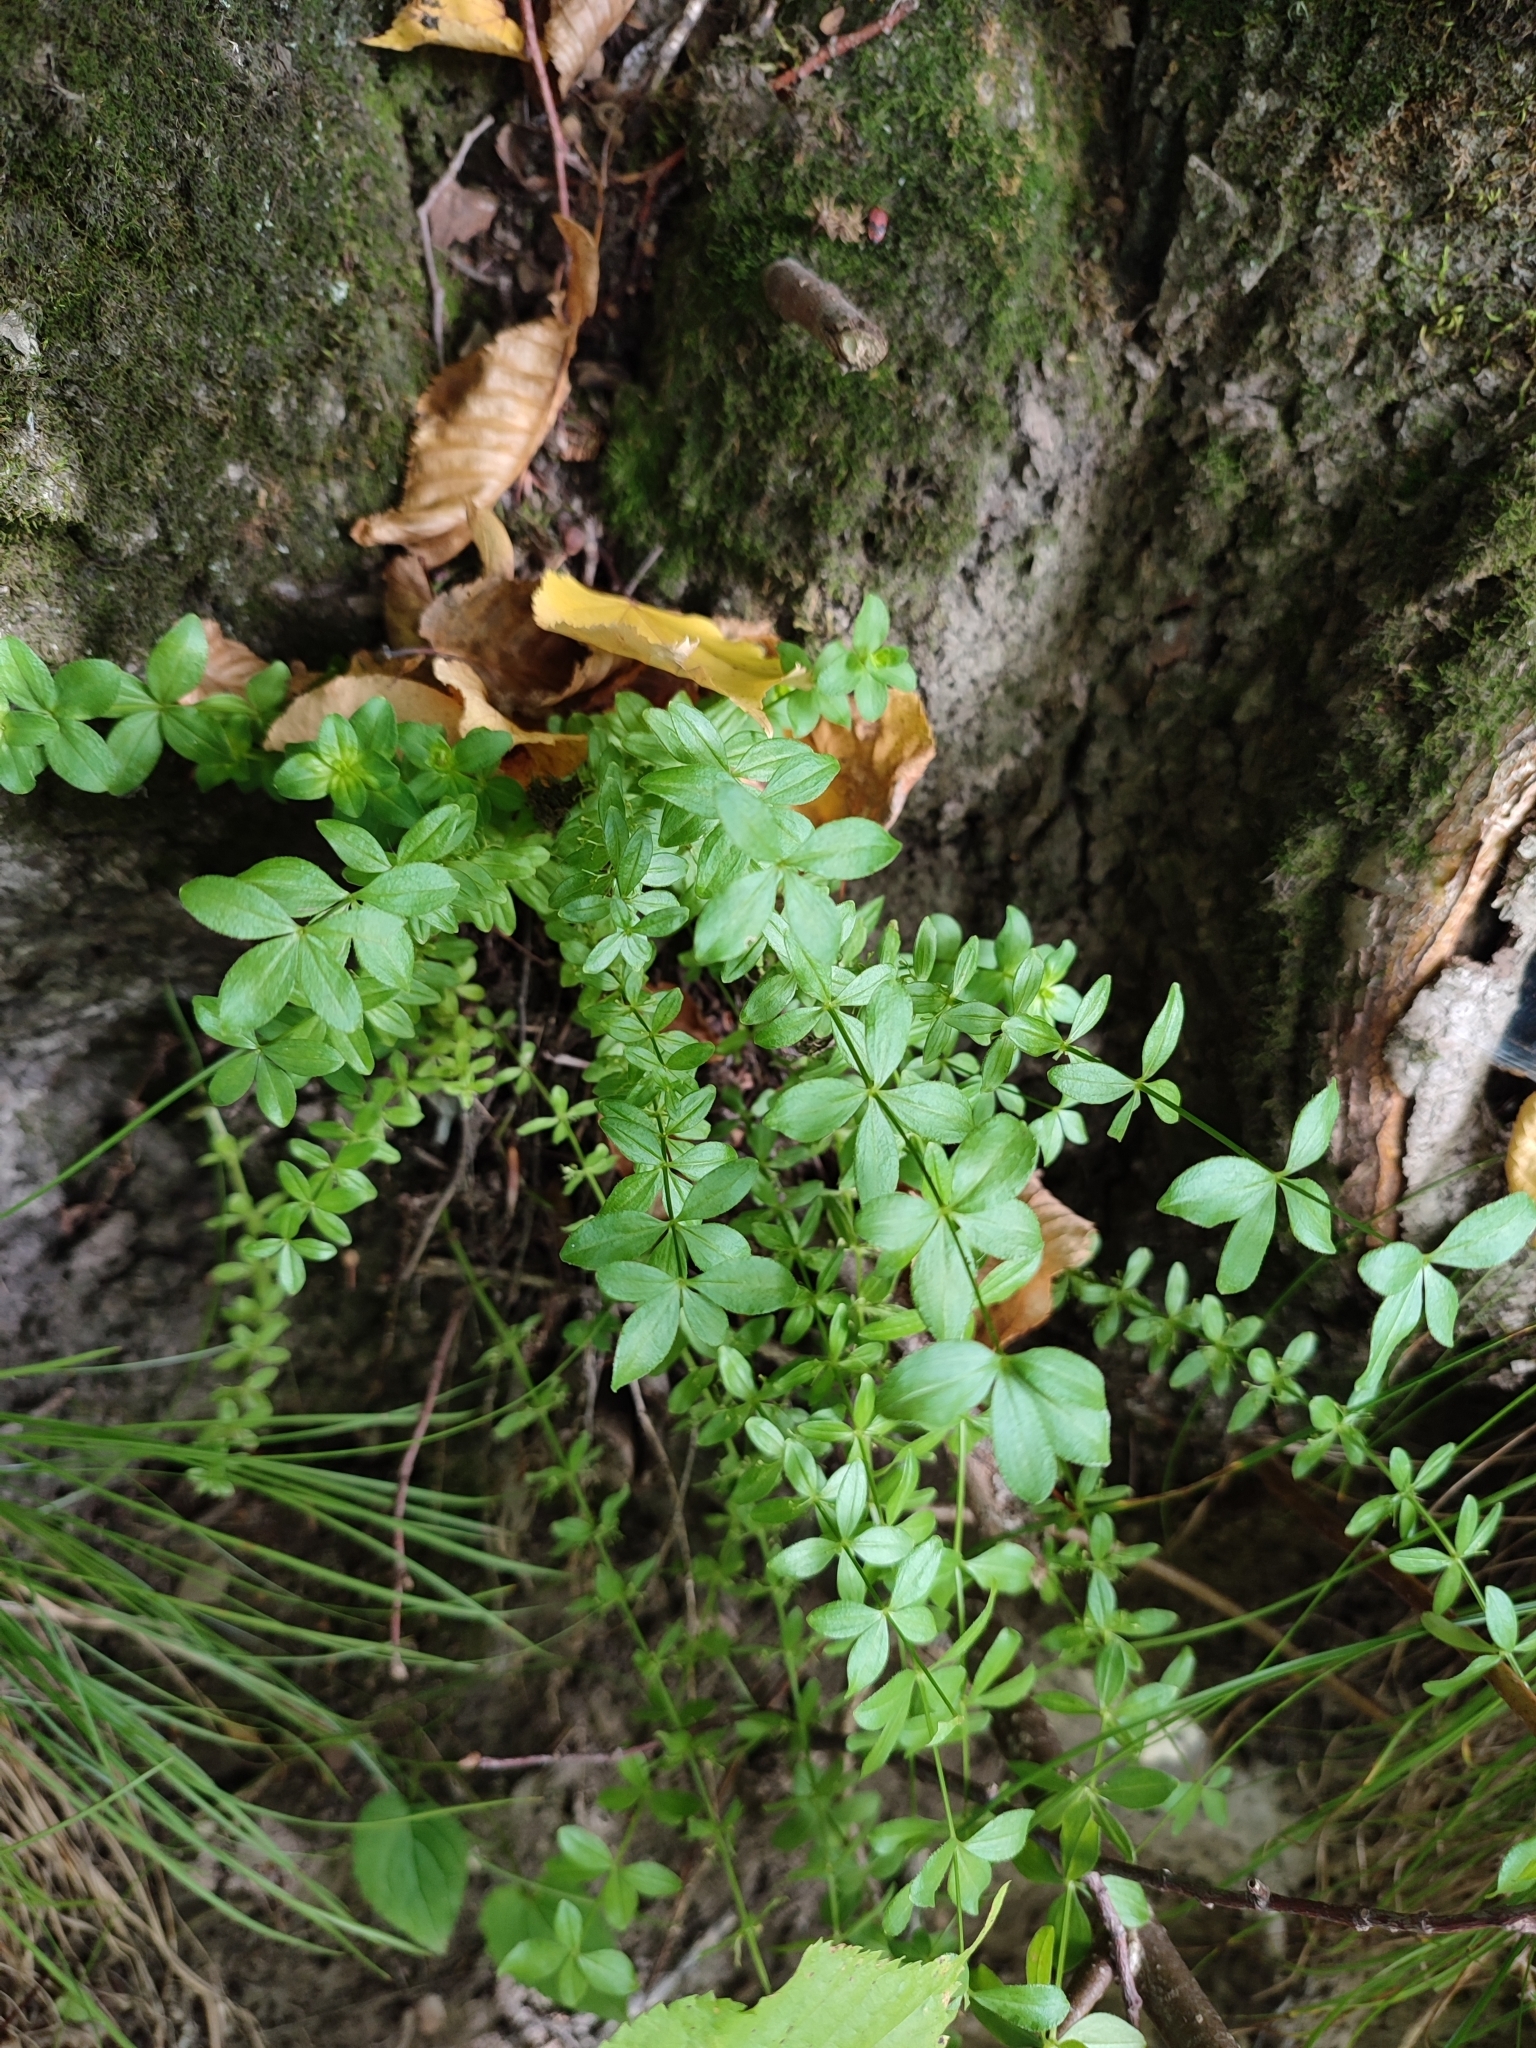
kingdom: Plantae
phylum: Tracheophyta
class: Magnoliopsida
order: Gentianales
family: Rubiaceae
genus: Cruciata
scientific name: Cruciata glabra
